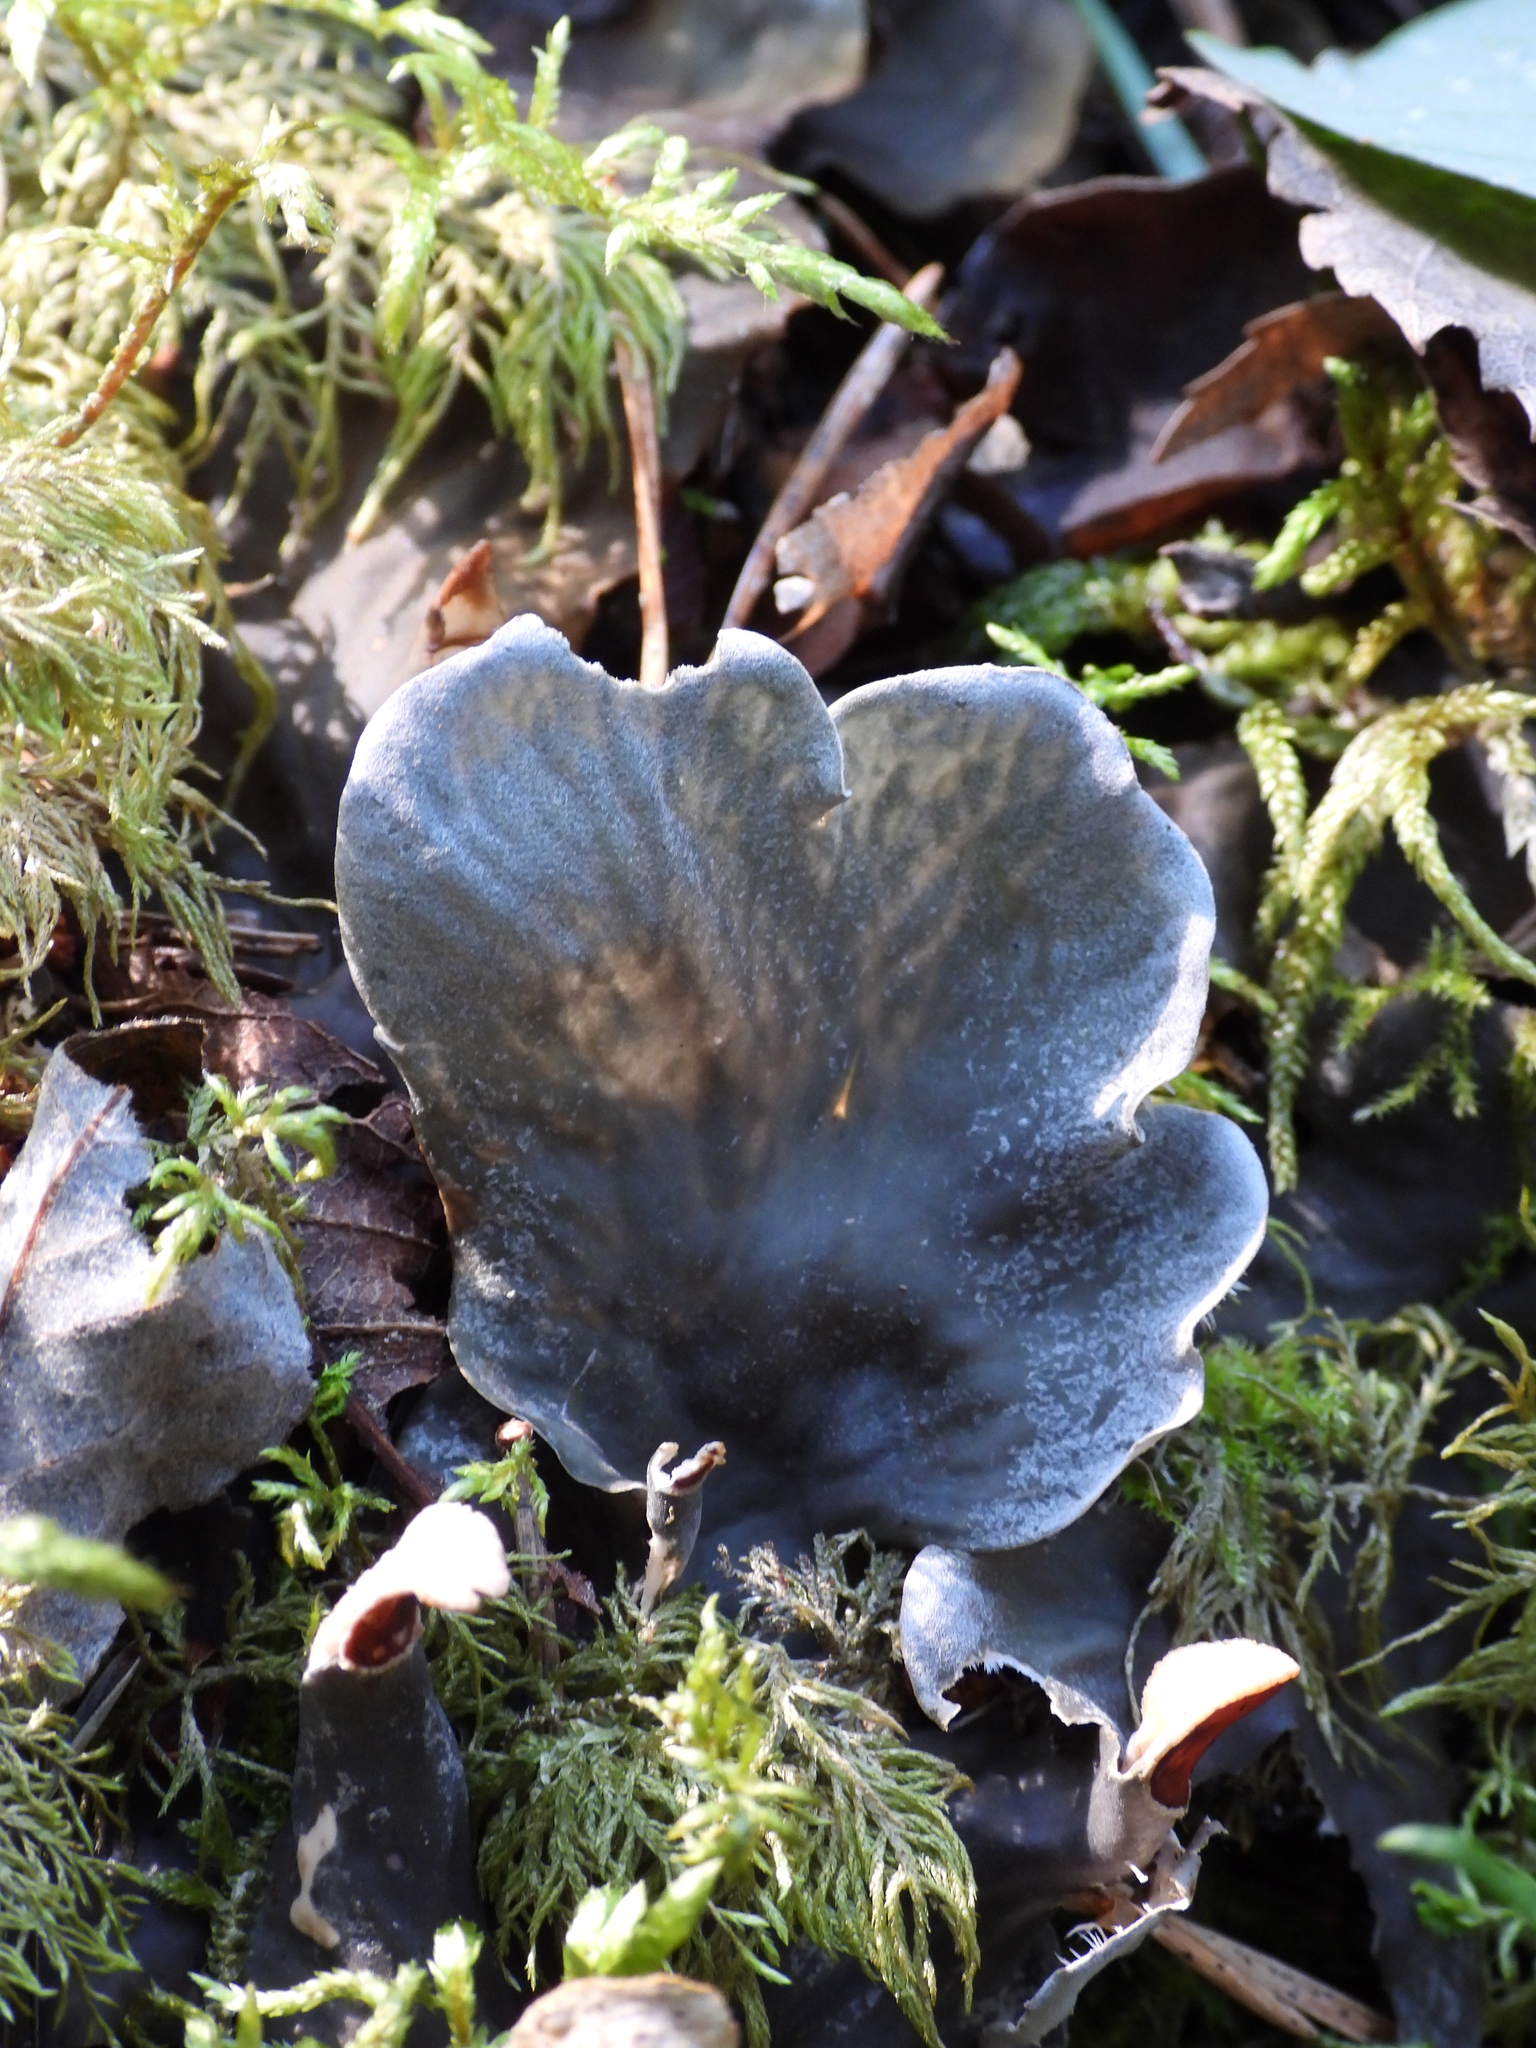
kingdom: Fungi
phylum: Ascomycota
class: Lecanoromycetes
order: Peltigerales
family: Peltigeraceae
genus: Peltigera
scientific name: Peltigera praetextata
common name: Scaly dog-lichen
